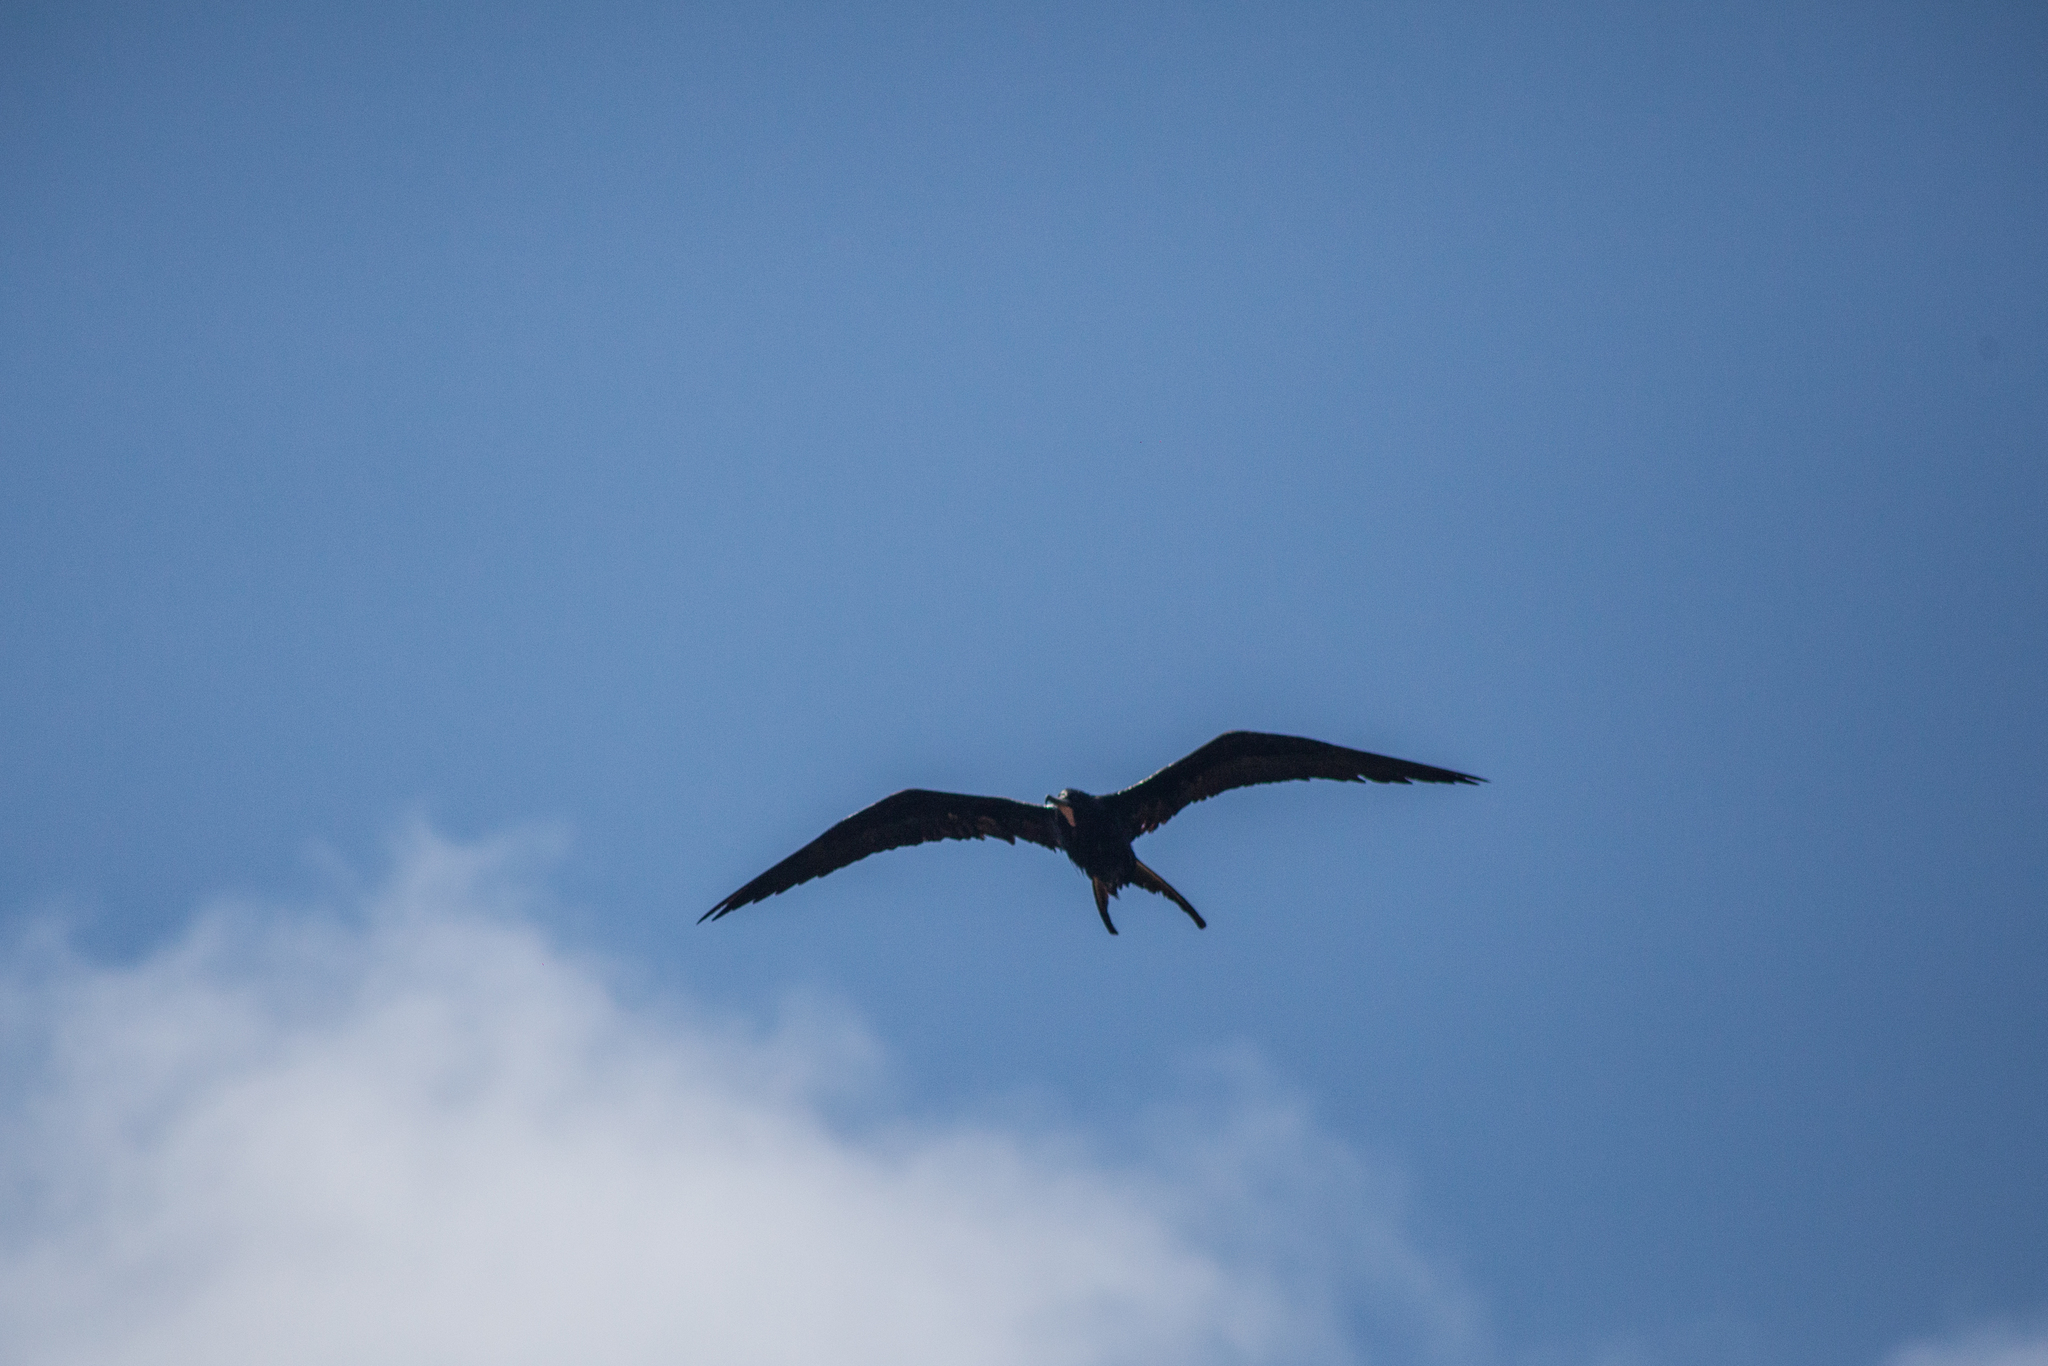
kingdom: Animalia
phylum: Chordata
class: Aves
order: Suliformes
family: Fregatidae
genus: Fregata
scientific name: Fregata magnificens
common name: Magnificent frigatebird
